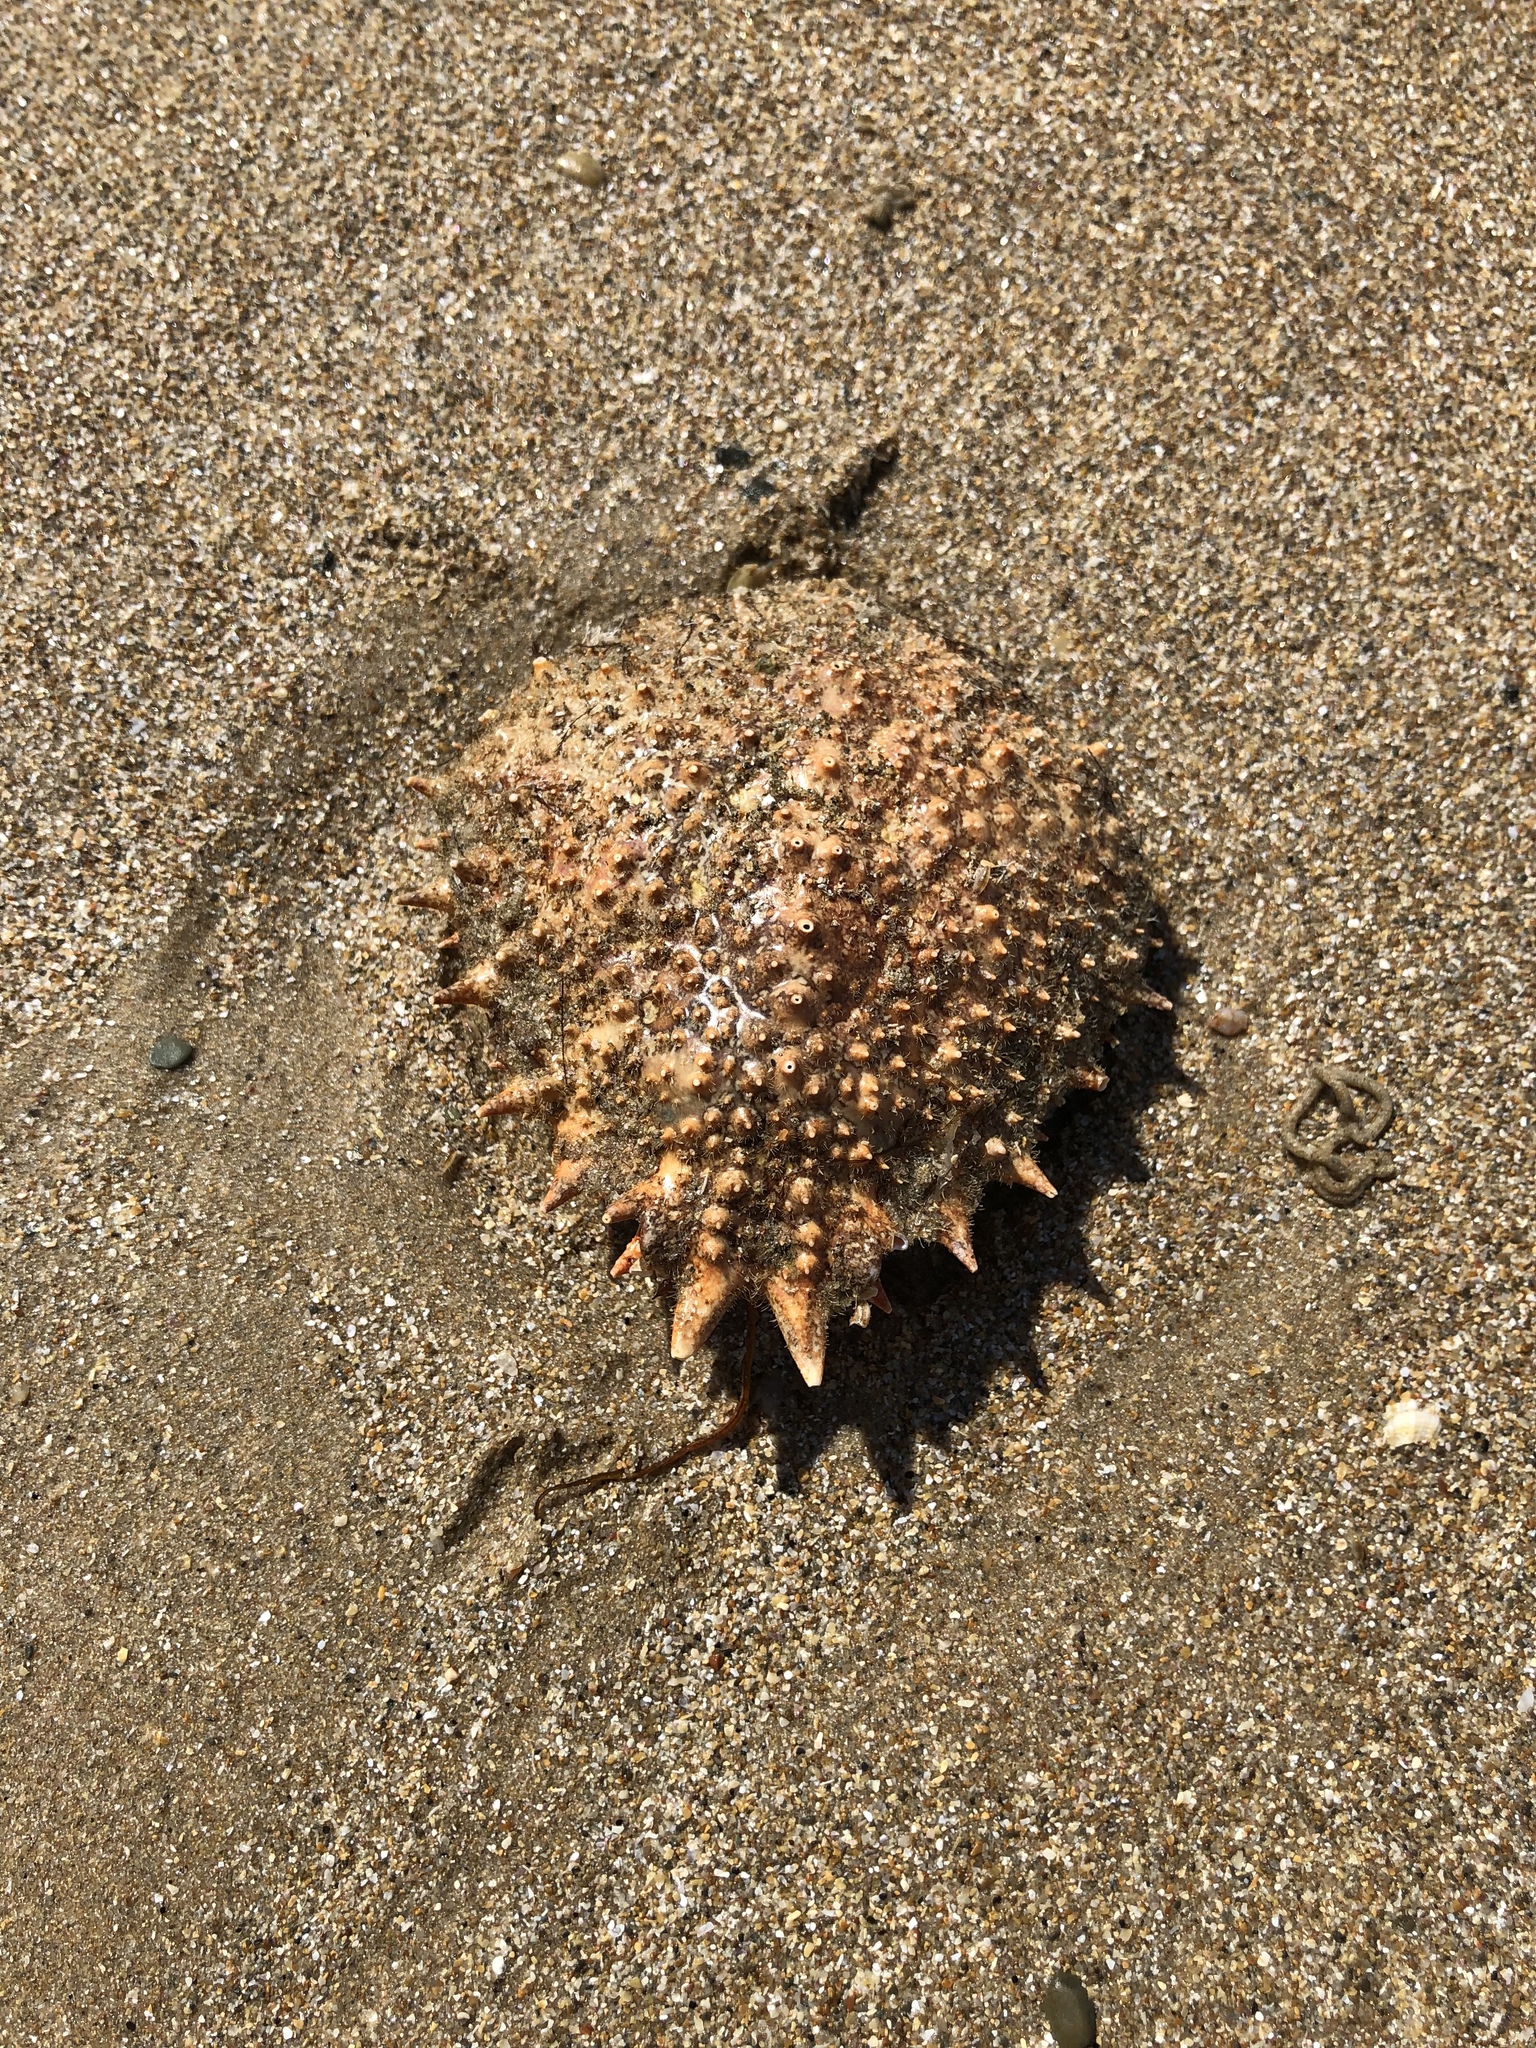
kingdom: Animalia
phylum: Arthropoda
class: Malacostraca
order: Decapoda
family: Majidae
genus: Maja
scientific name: Maja brachydactyla
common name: Common spider crab
